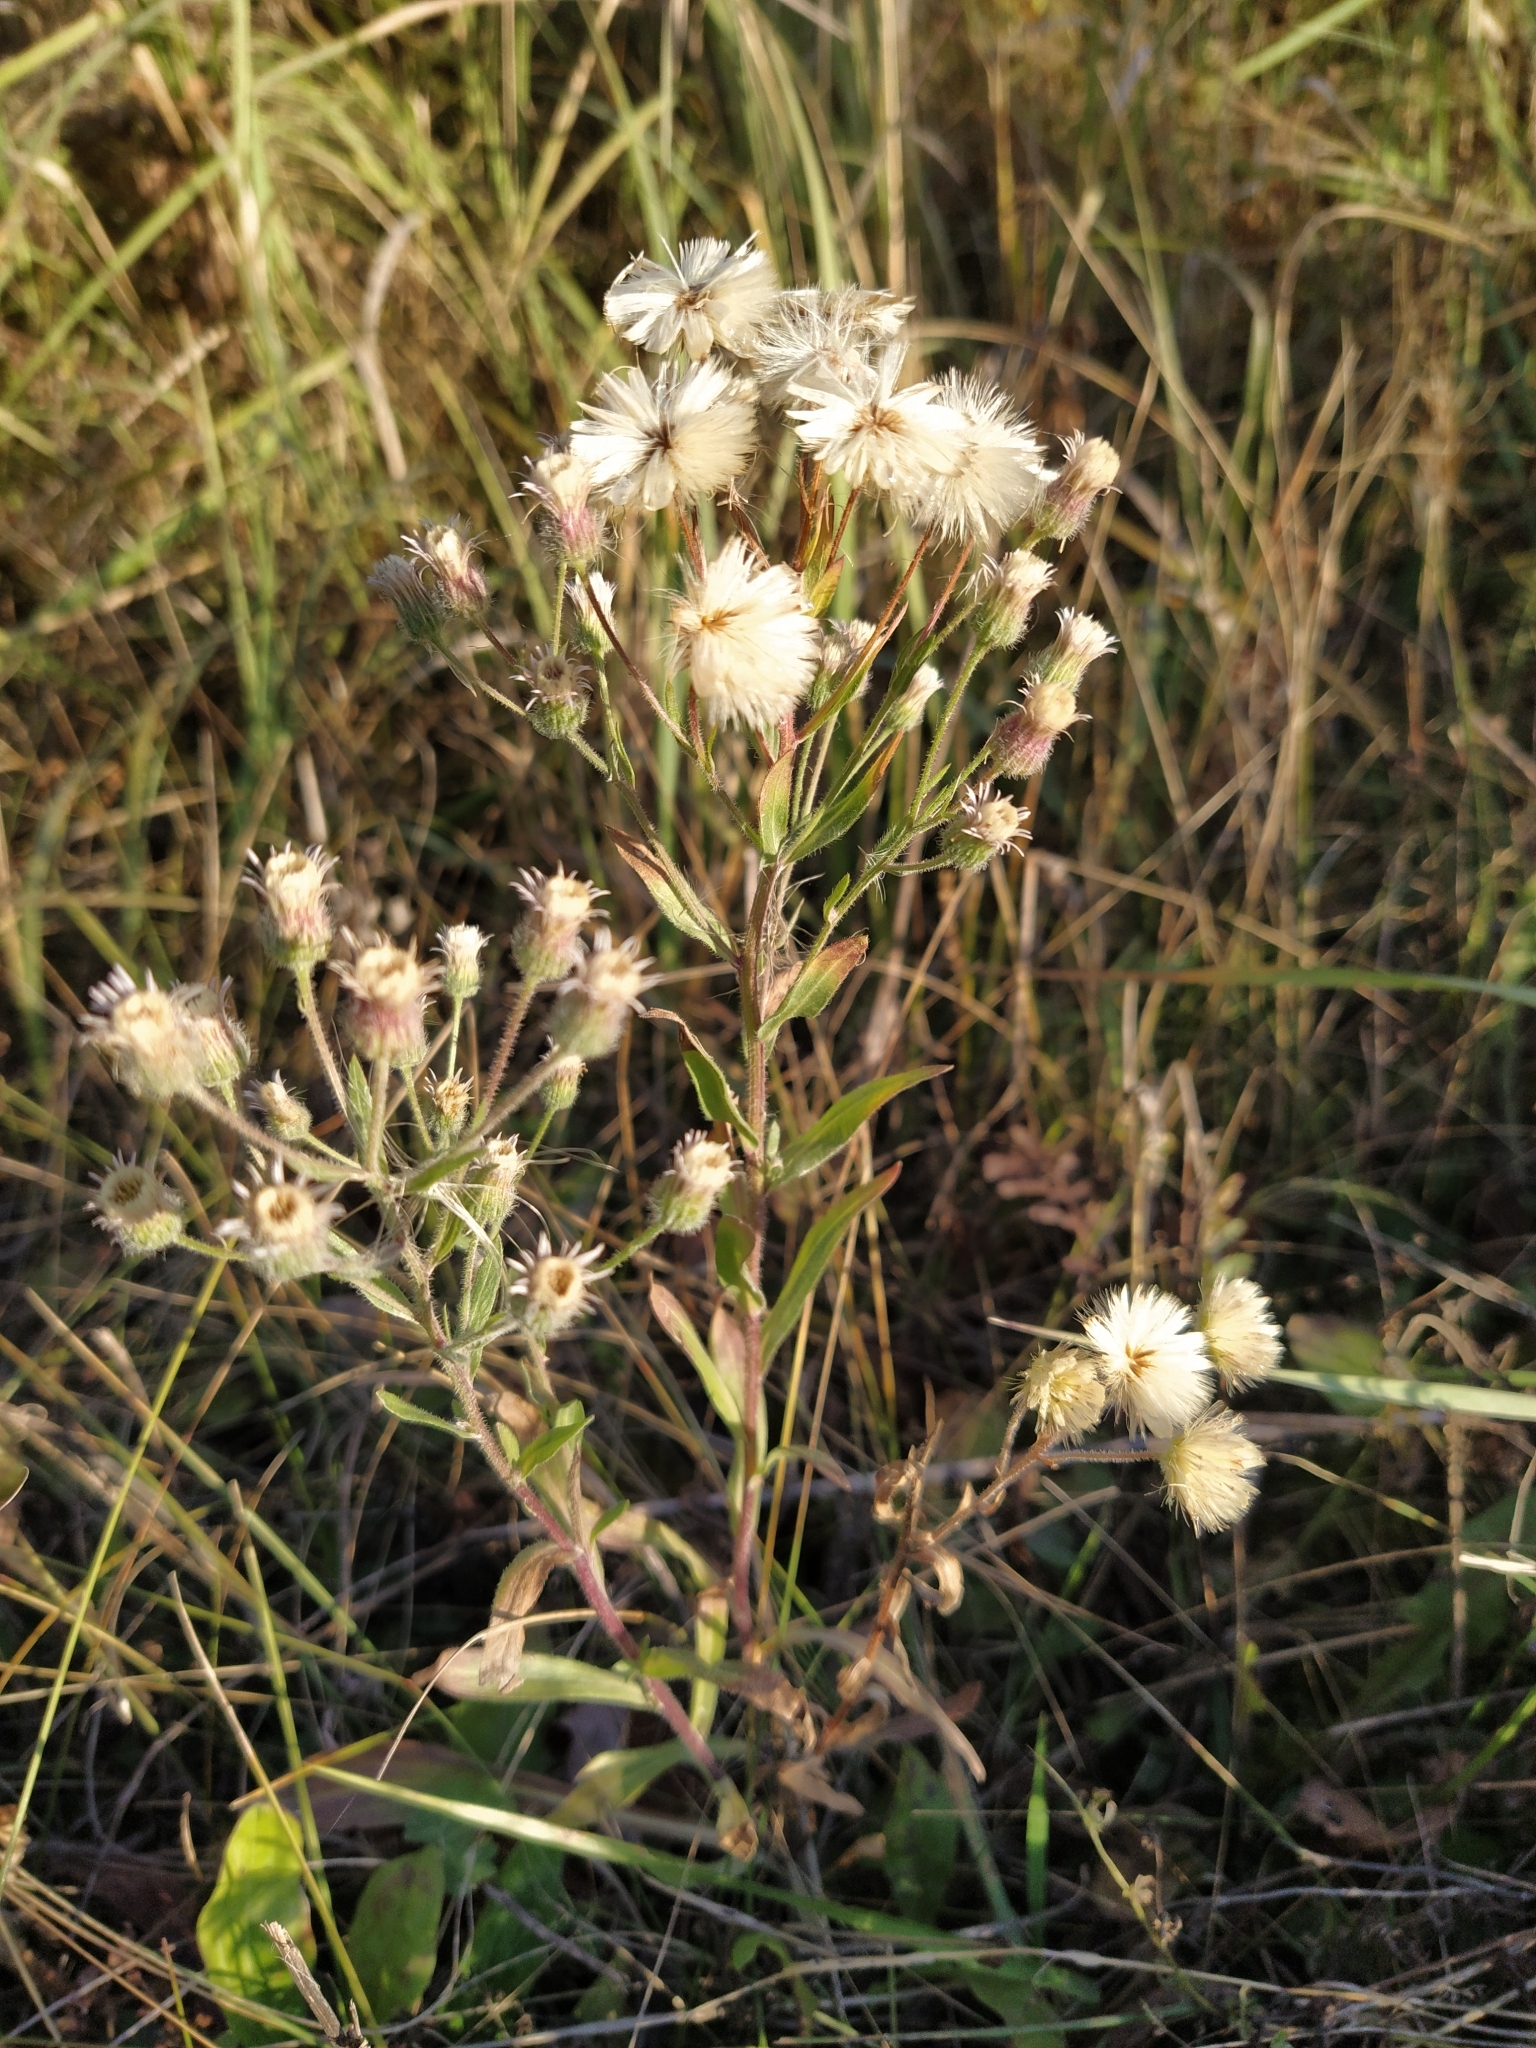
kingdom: Plantae
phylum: Tracheophyta
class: Magnoliopsida
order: Asterales
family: Asteraceae
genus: Erigeron
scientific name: Erigeron acris
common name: Blue fleabane
